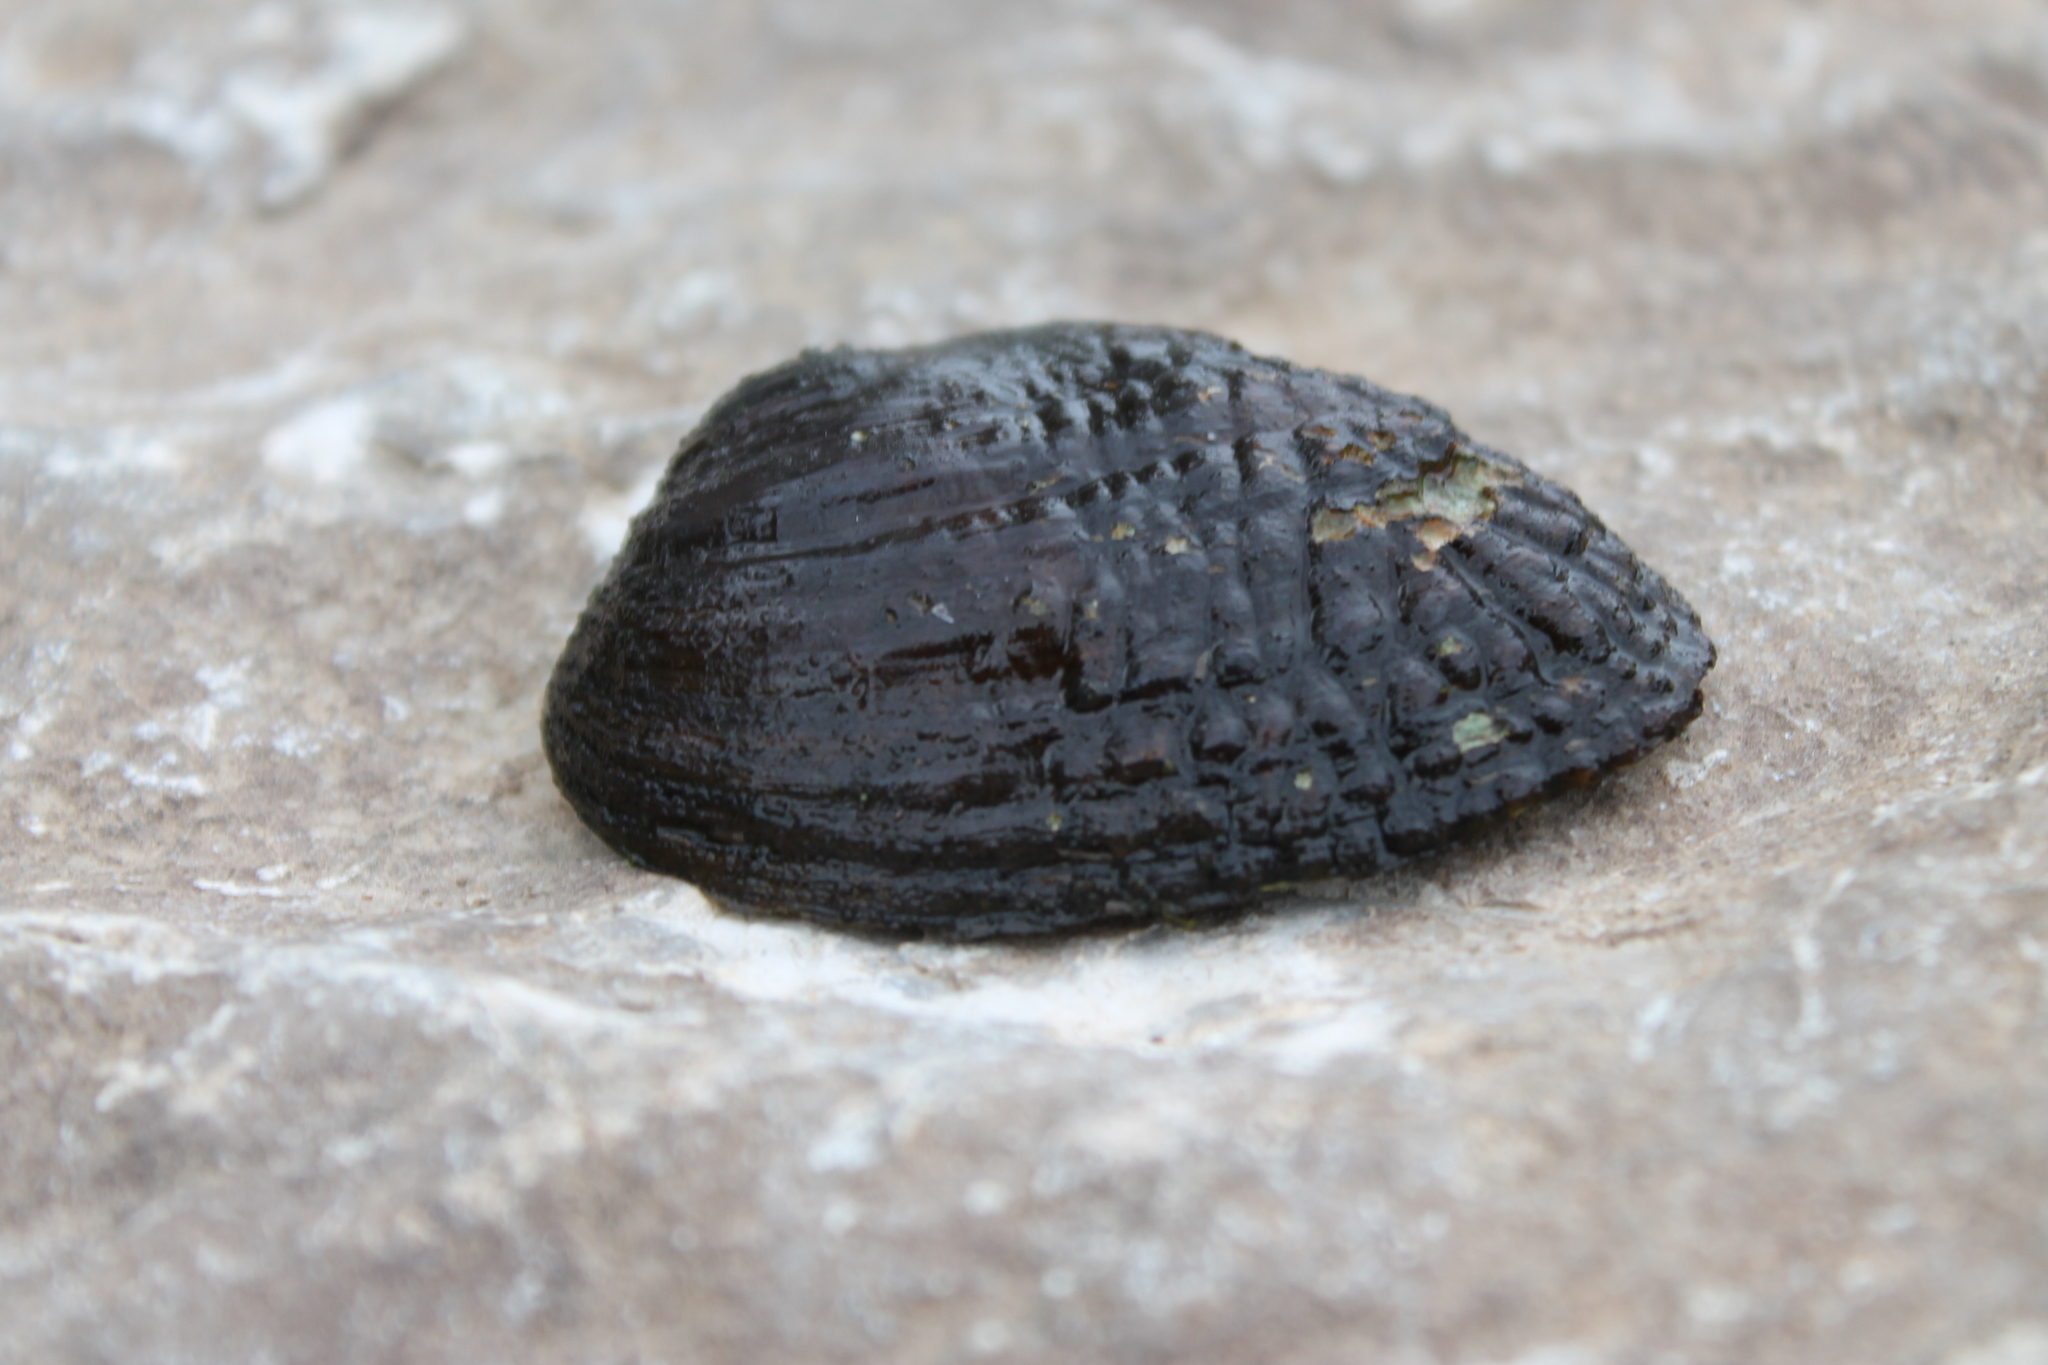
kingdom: Animalia
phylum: Mollusca
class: Bivalvia
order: Unionida
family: Unionidae
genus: Lemiox
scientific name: Lemiox rimosus
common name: Birdwing pearlymussel
